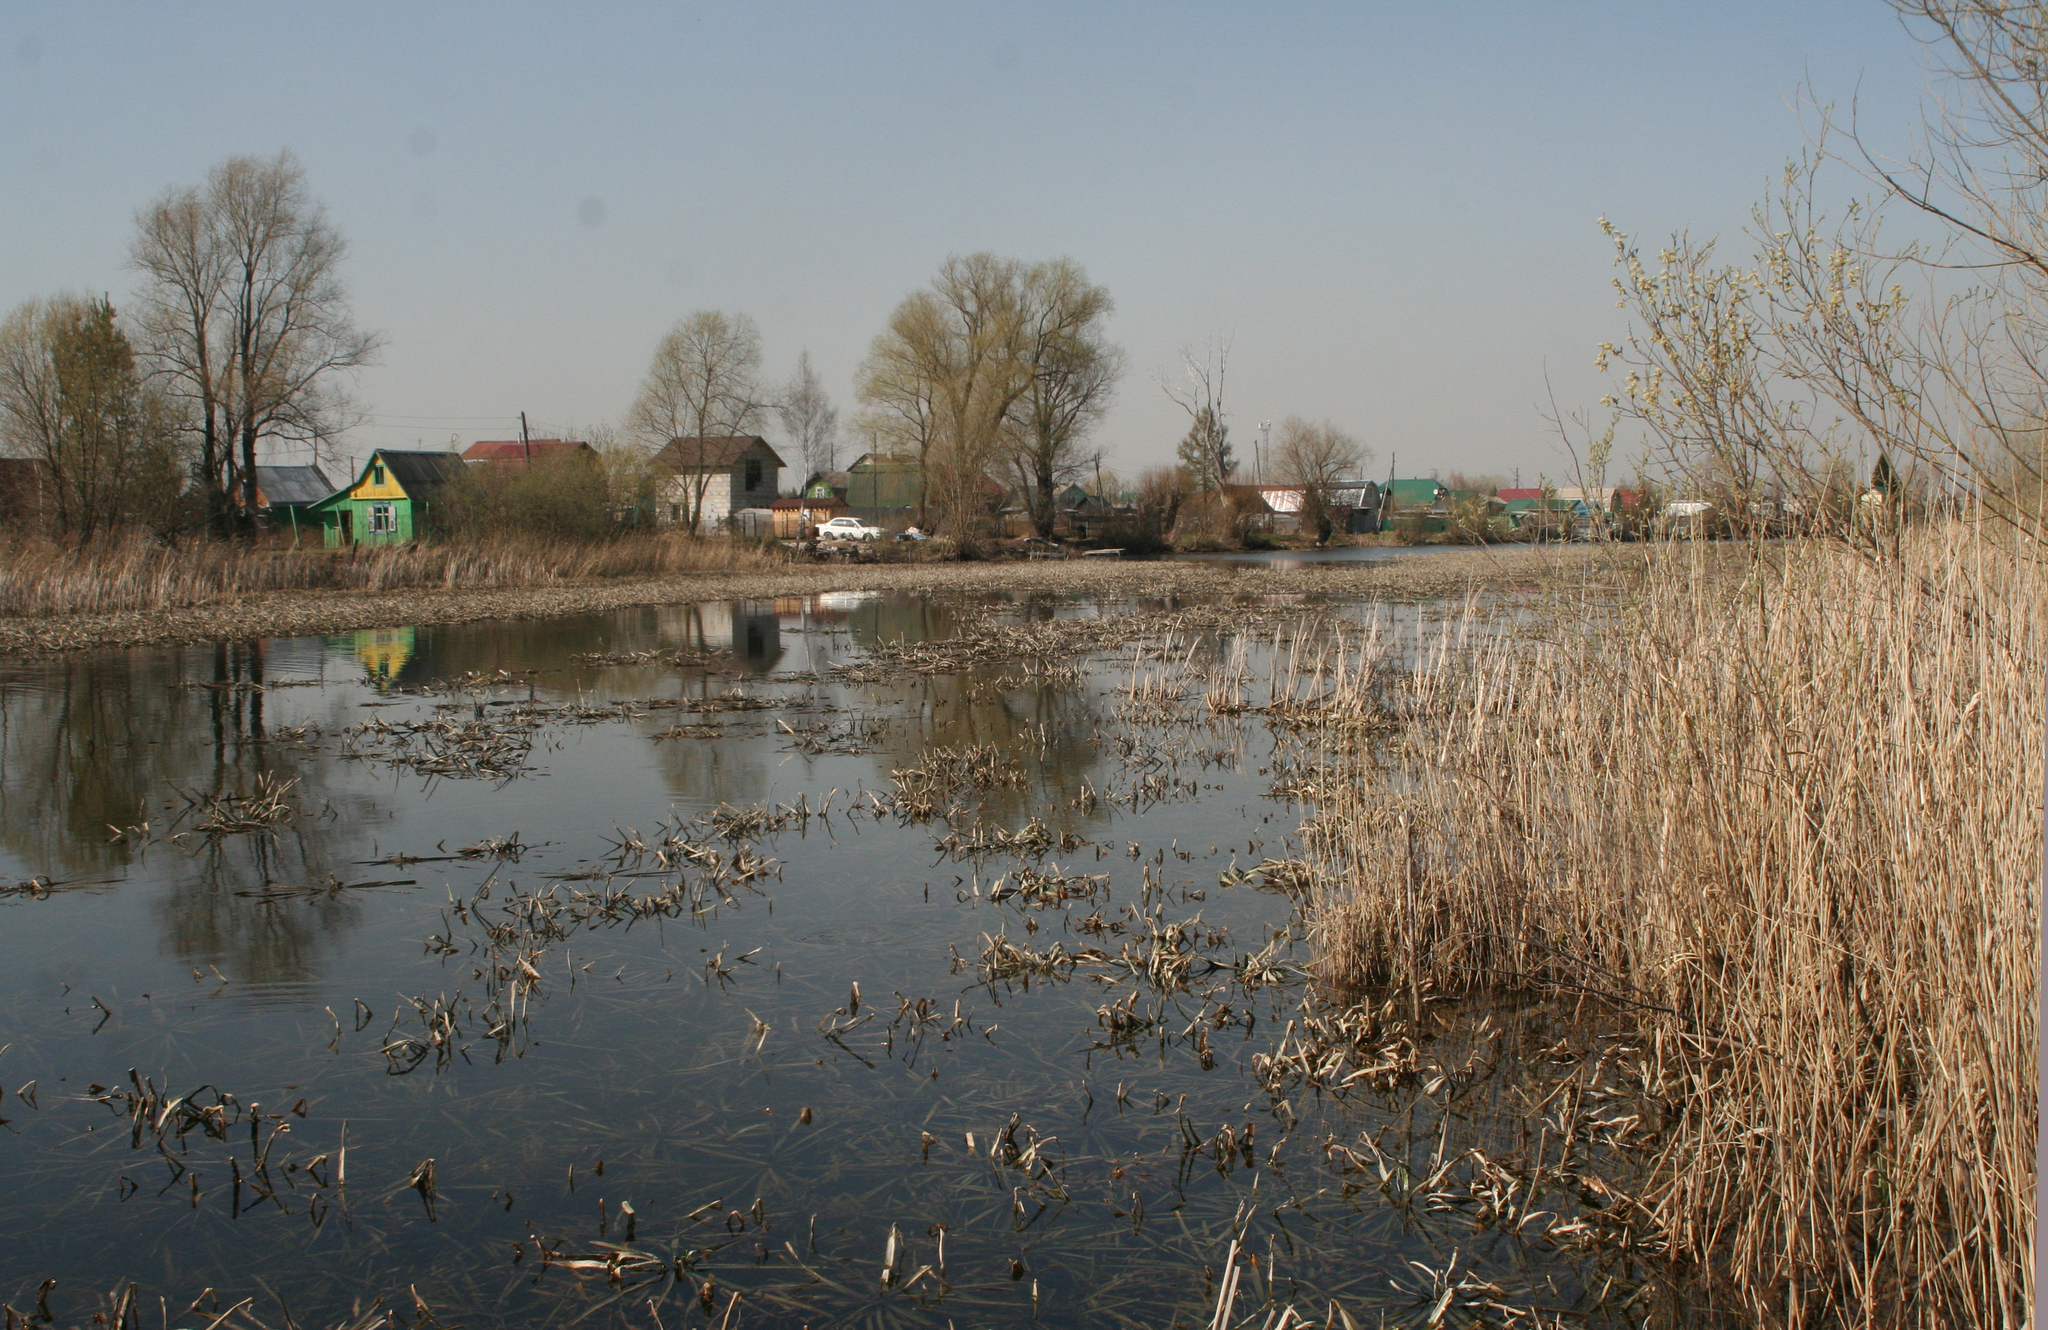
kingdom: Plantae
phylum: Tracheophyta
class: Liliopsida
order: Poales
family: Poaceae
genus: Phragmites
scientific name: Phragmites australis
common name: Common reed
